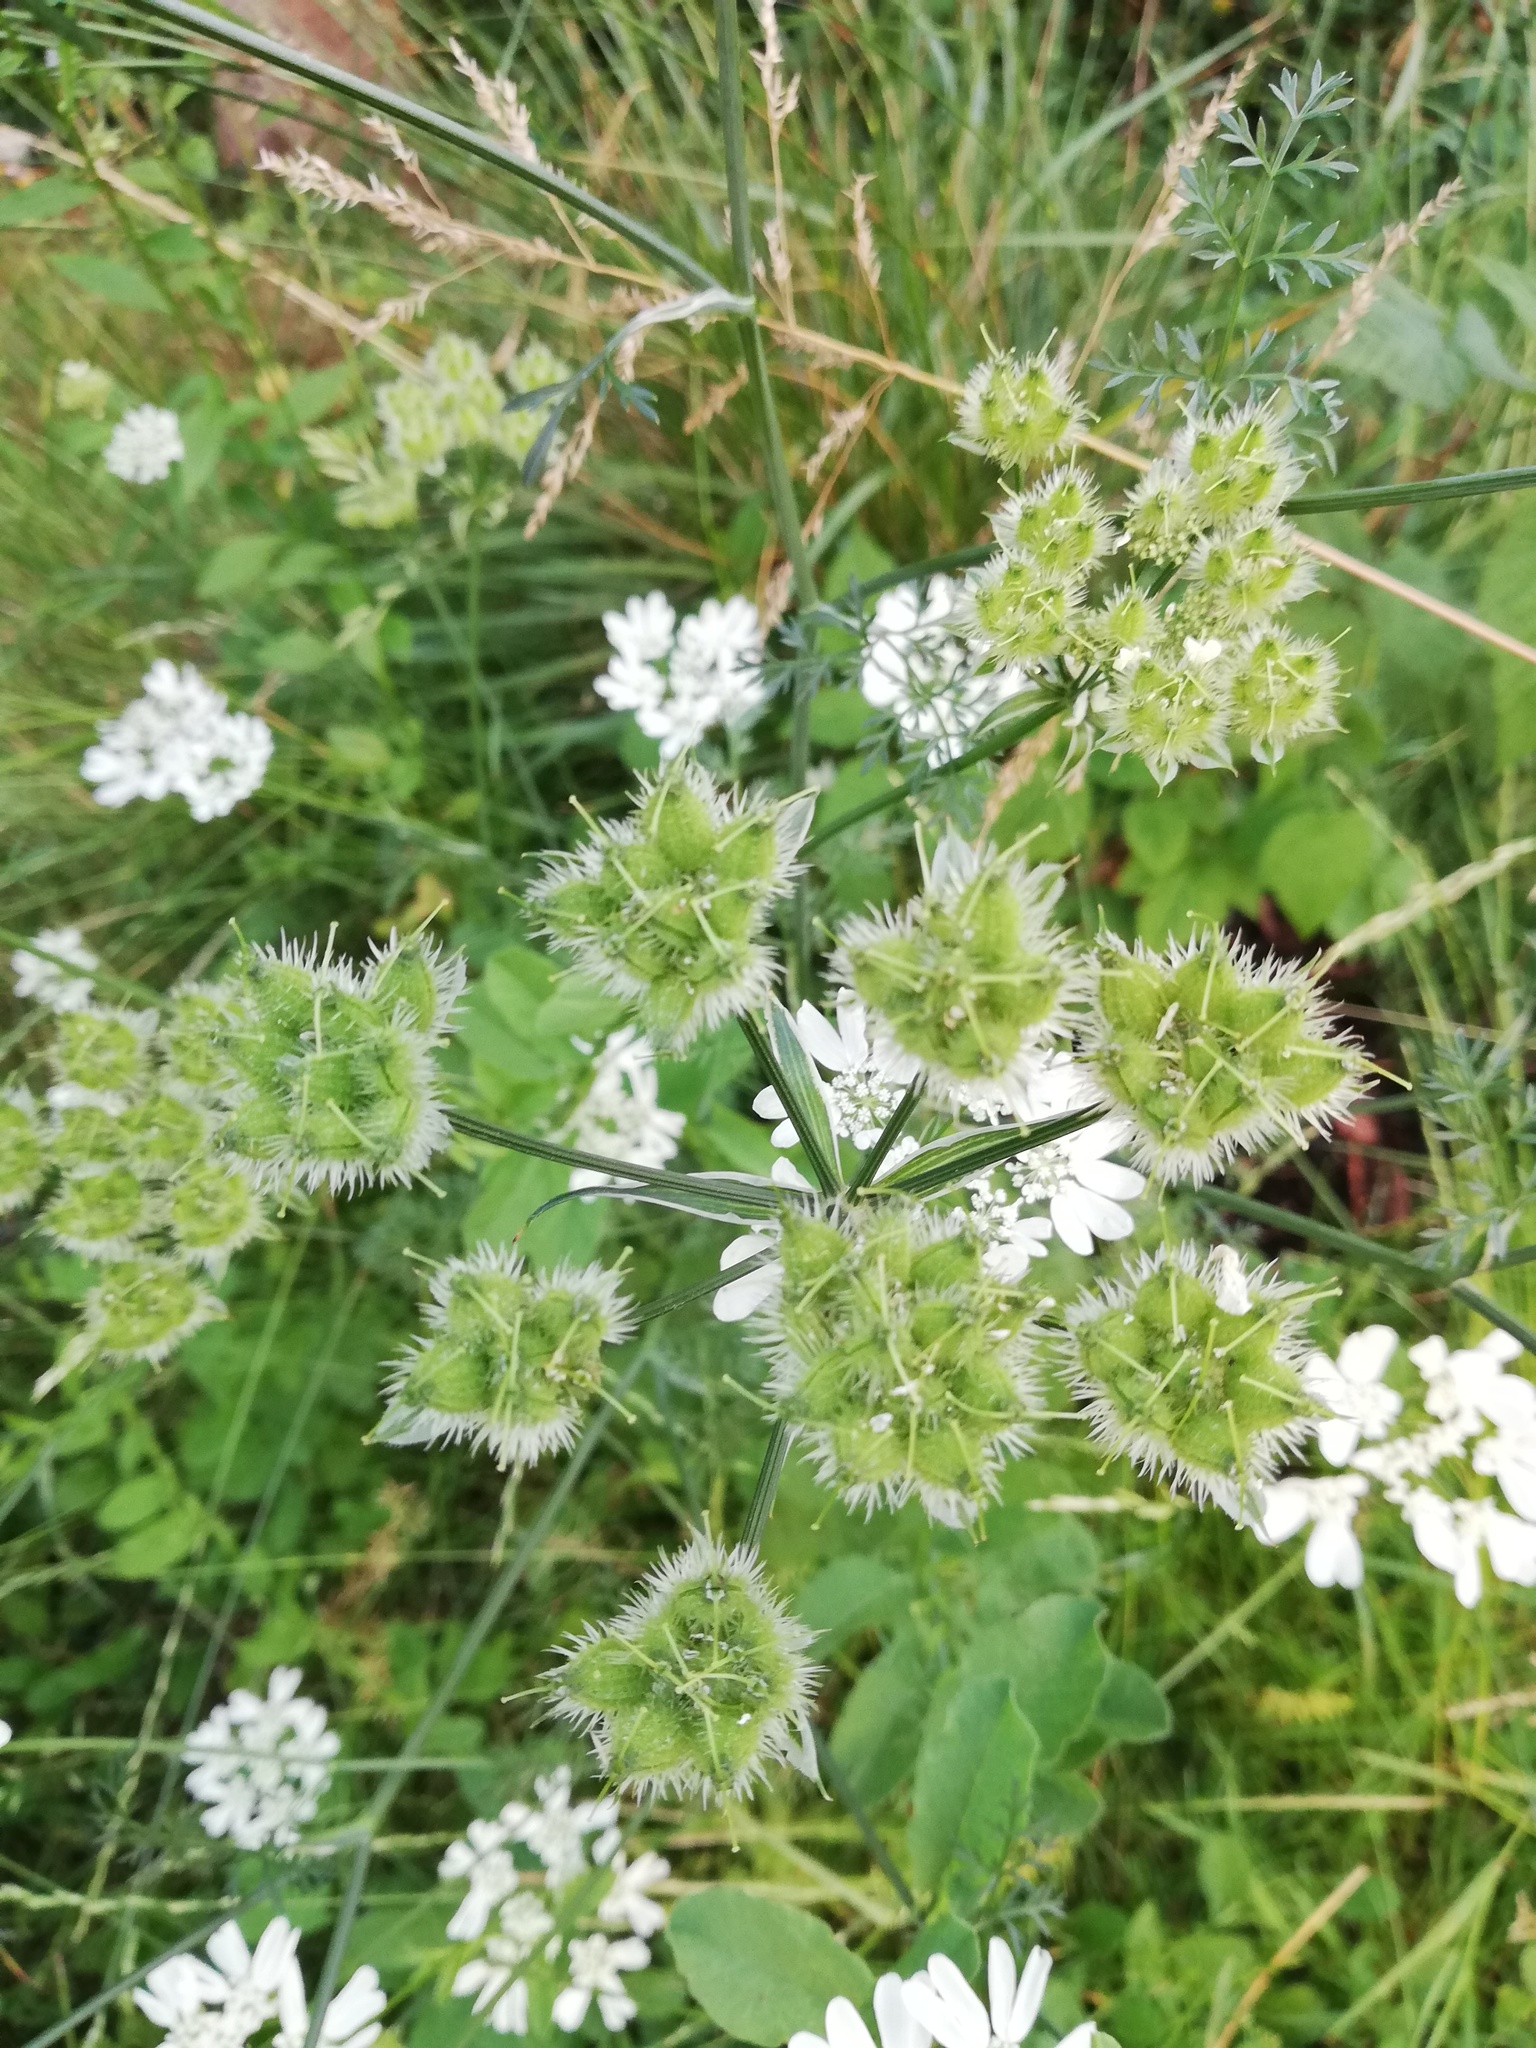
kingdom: Plantae
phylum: Tracheophyta
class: Magnoliopsida
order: Apiales
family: Apiaceae
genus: Orlaya
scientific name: Orlaya grandiflora
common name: White lace flower
